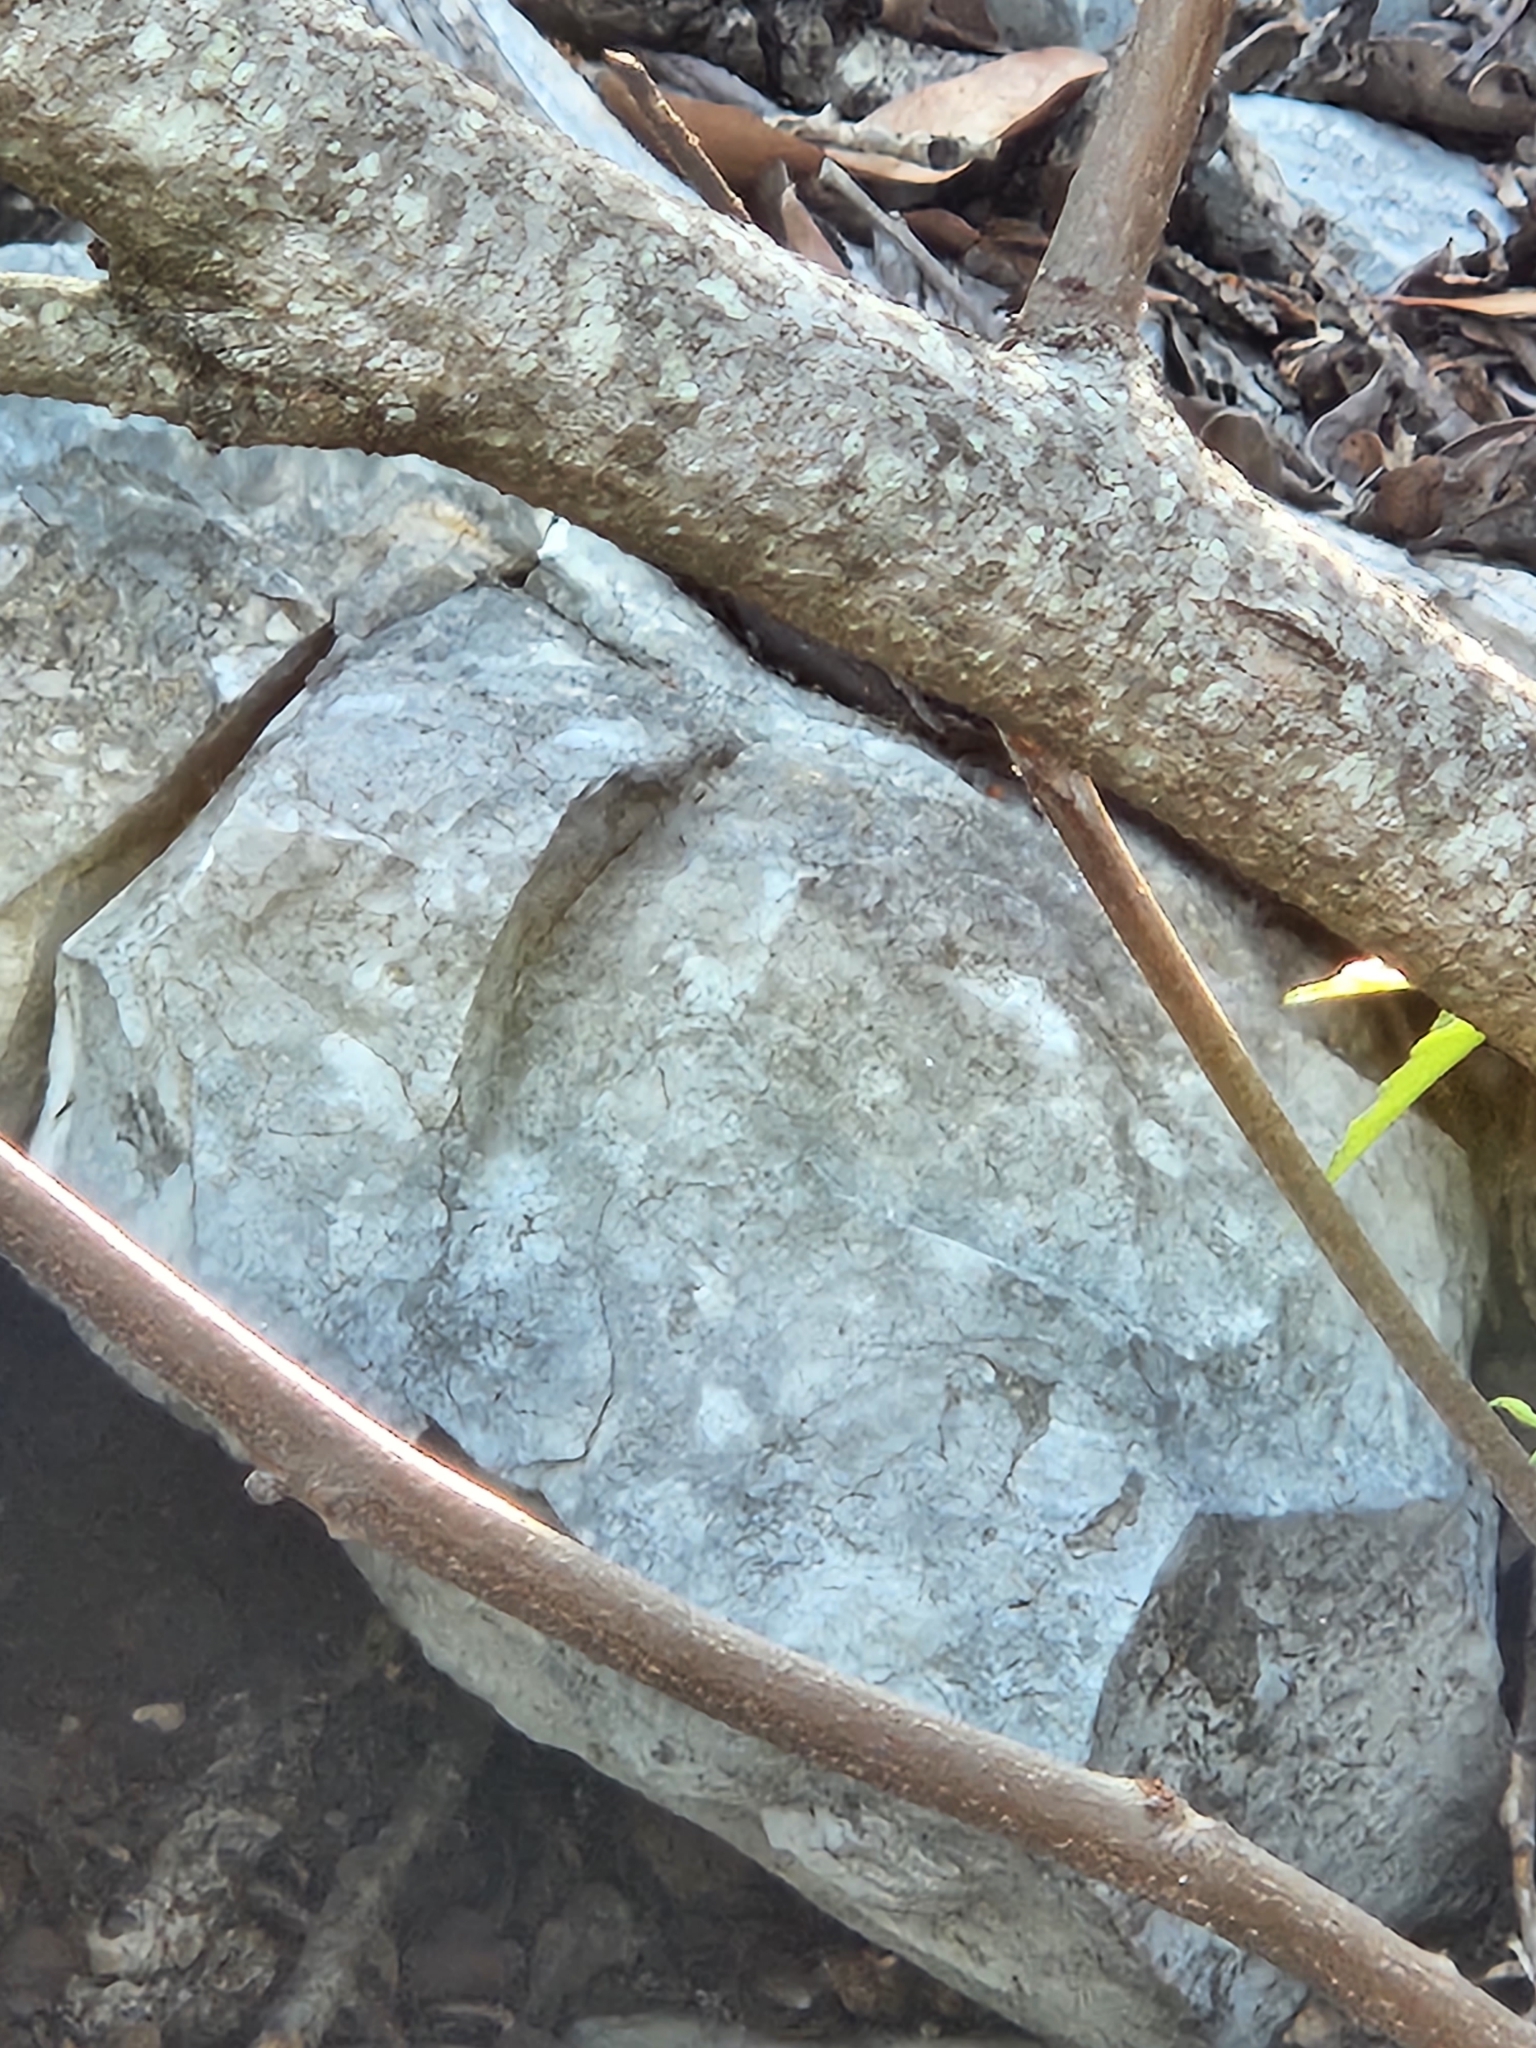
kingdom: Plantae
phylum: Tracheophyta
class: Magnoliopsida
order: Sapindales
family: Sapindaceae
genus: Ungnadia
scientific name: Ungnadia speciosa
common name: Texas-buckeye
